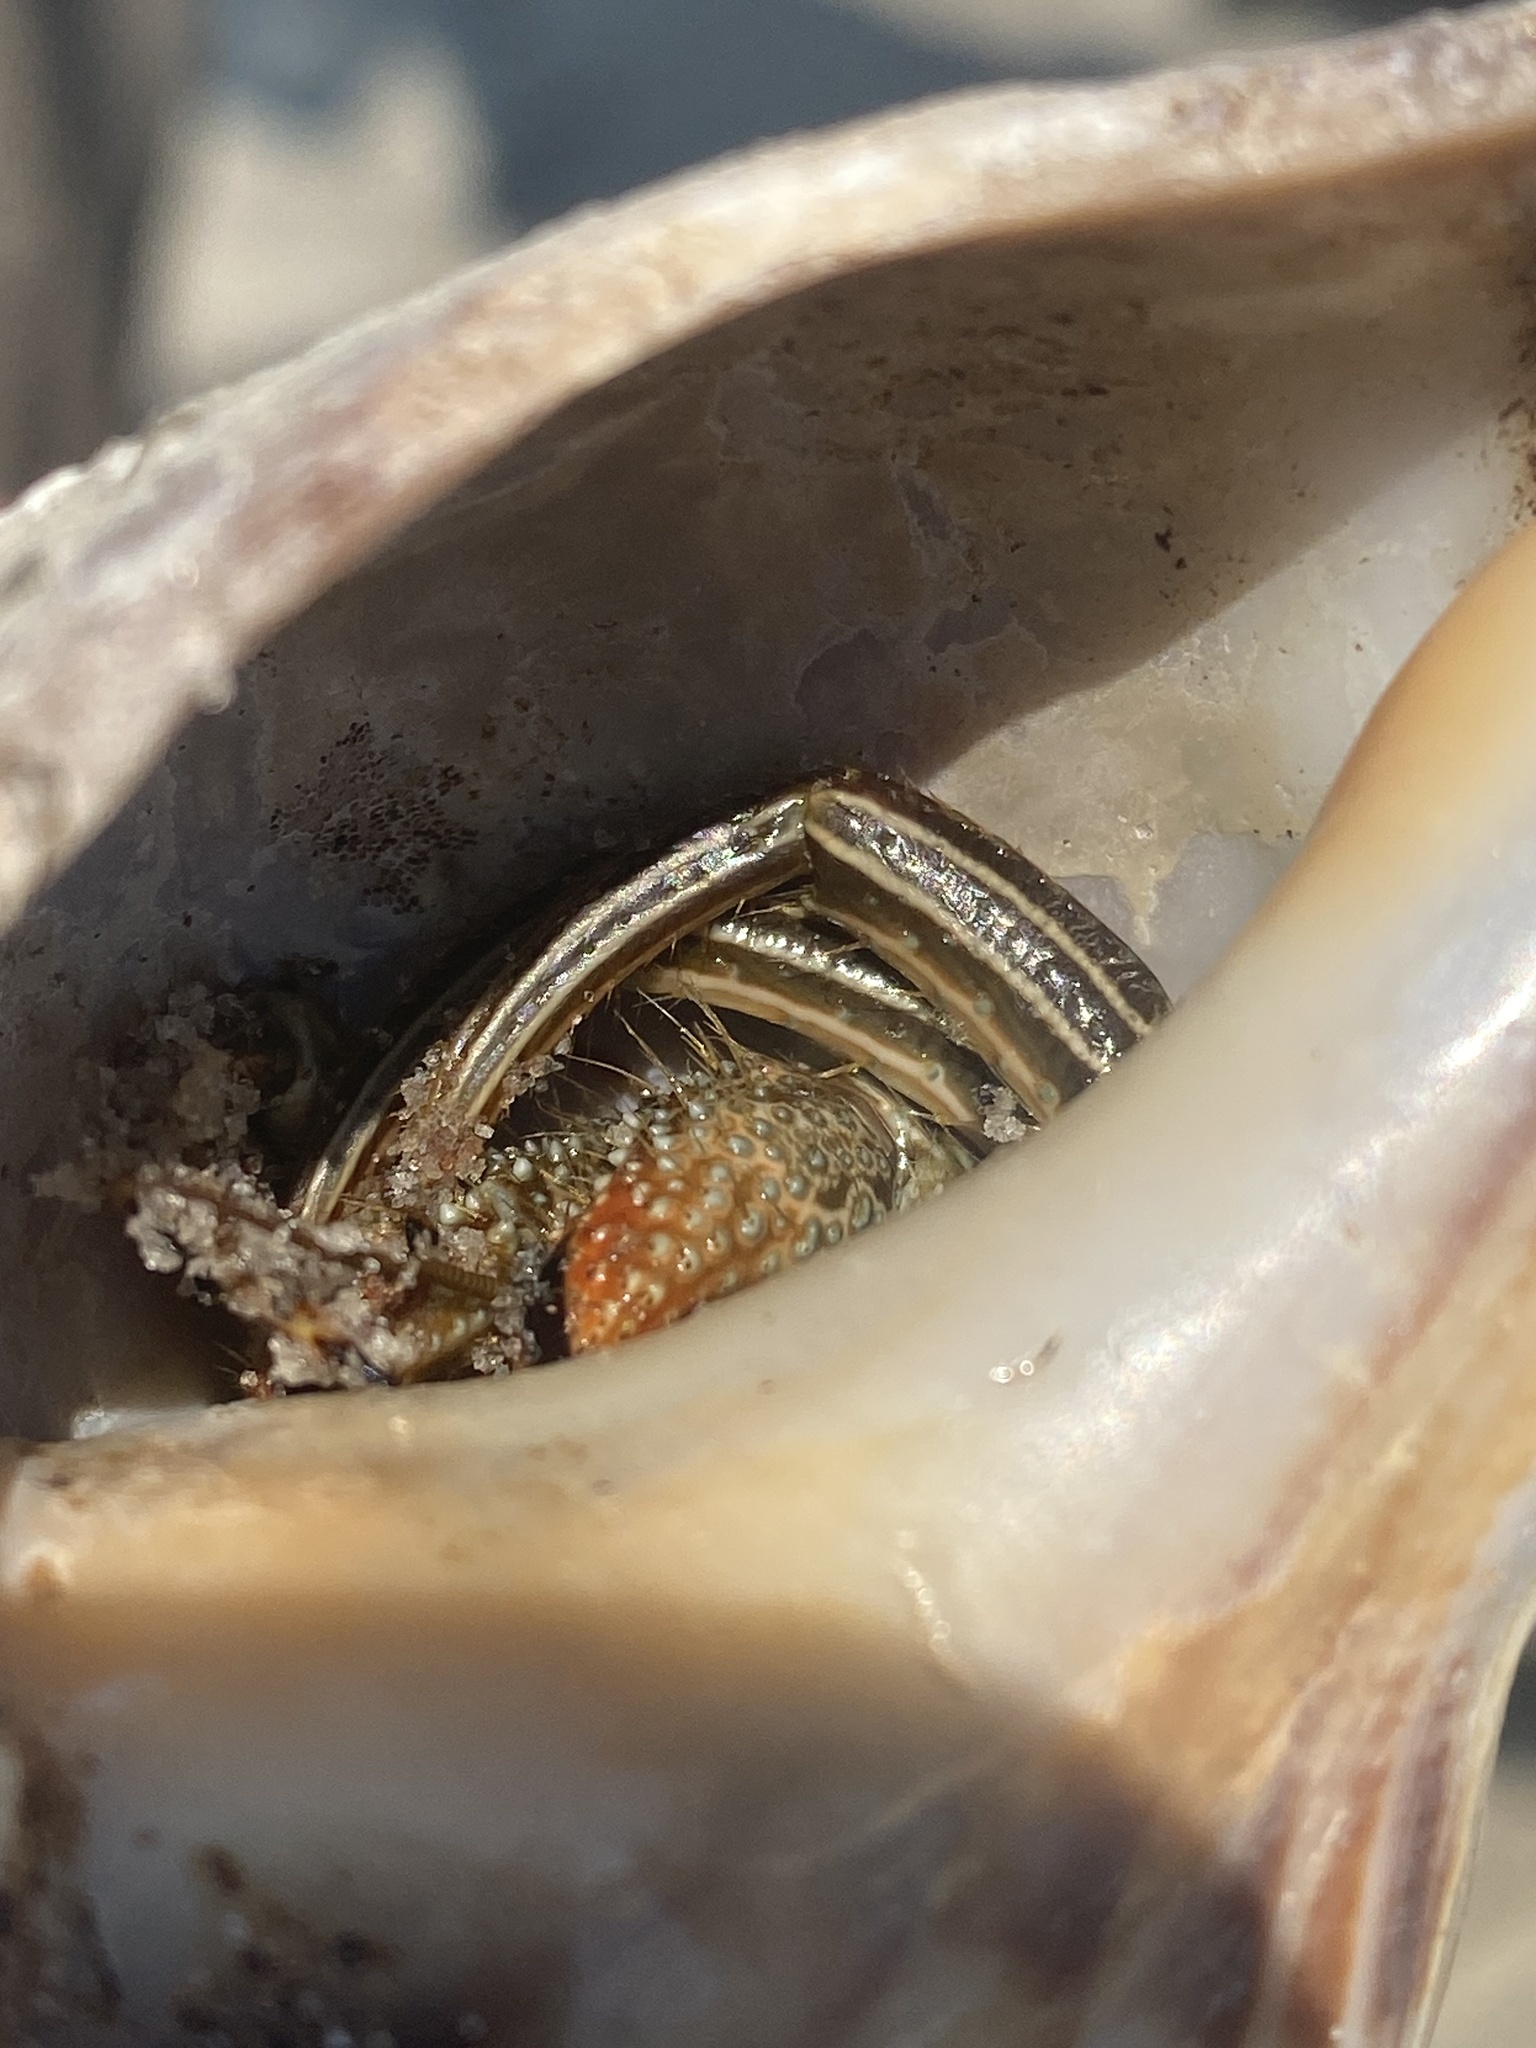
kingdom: Animalia
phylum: Arthropoda
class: Malacostraca
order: Decapoda
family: Diogenidae
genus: Clibanarius
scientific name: Clibanarius vittatus
